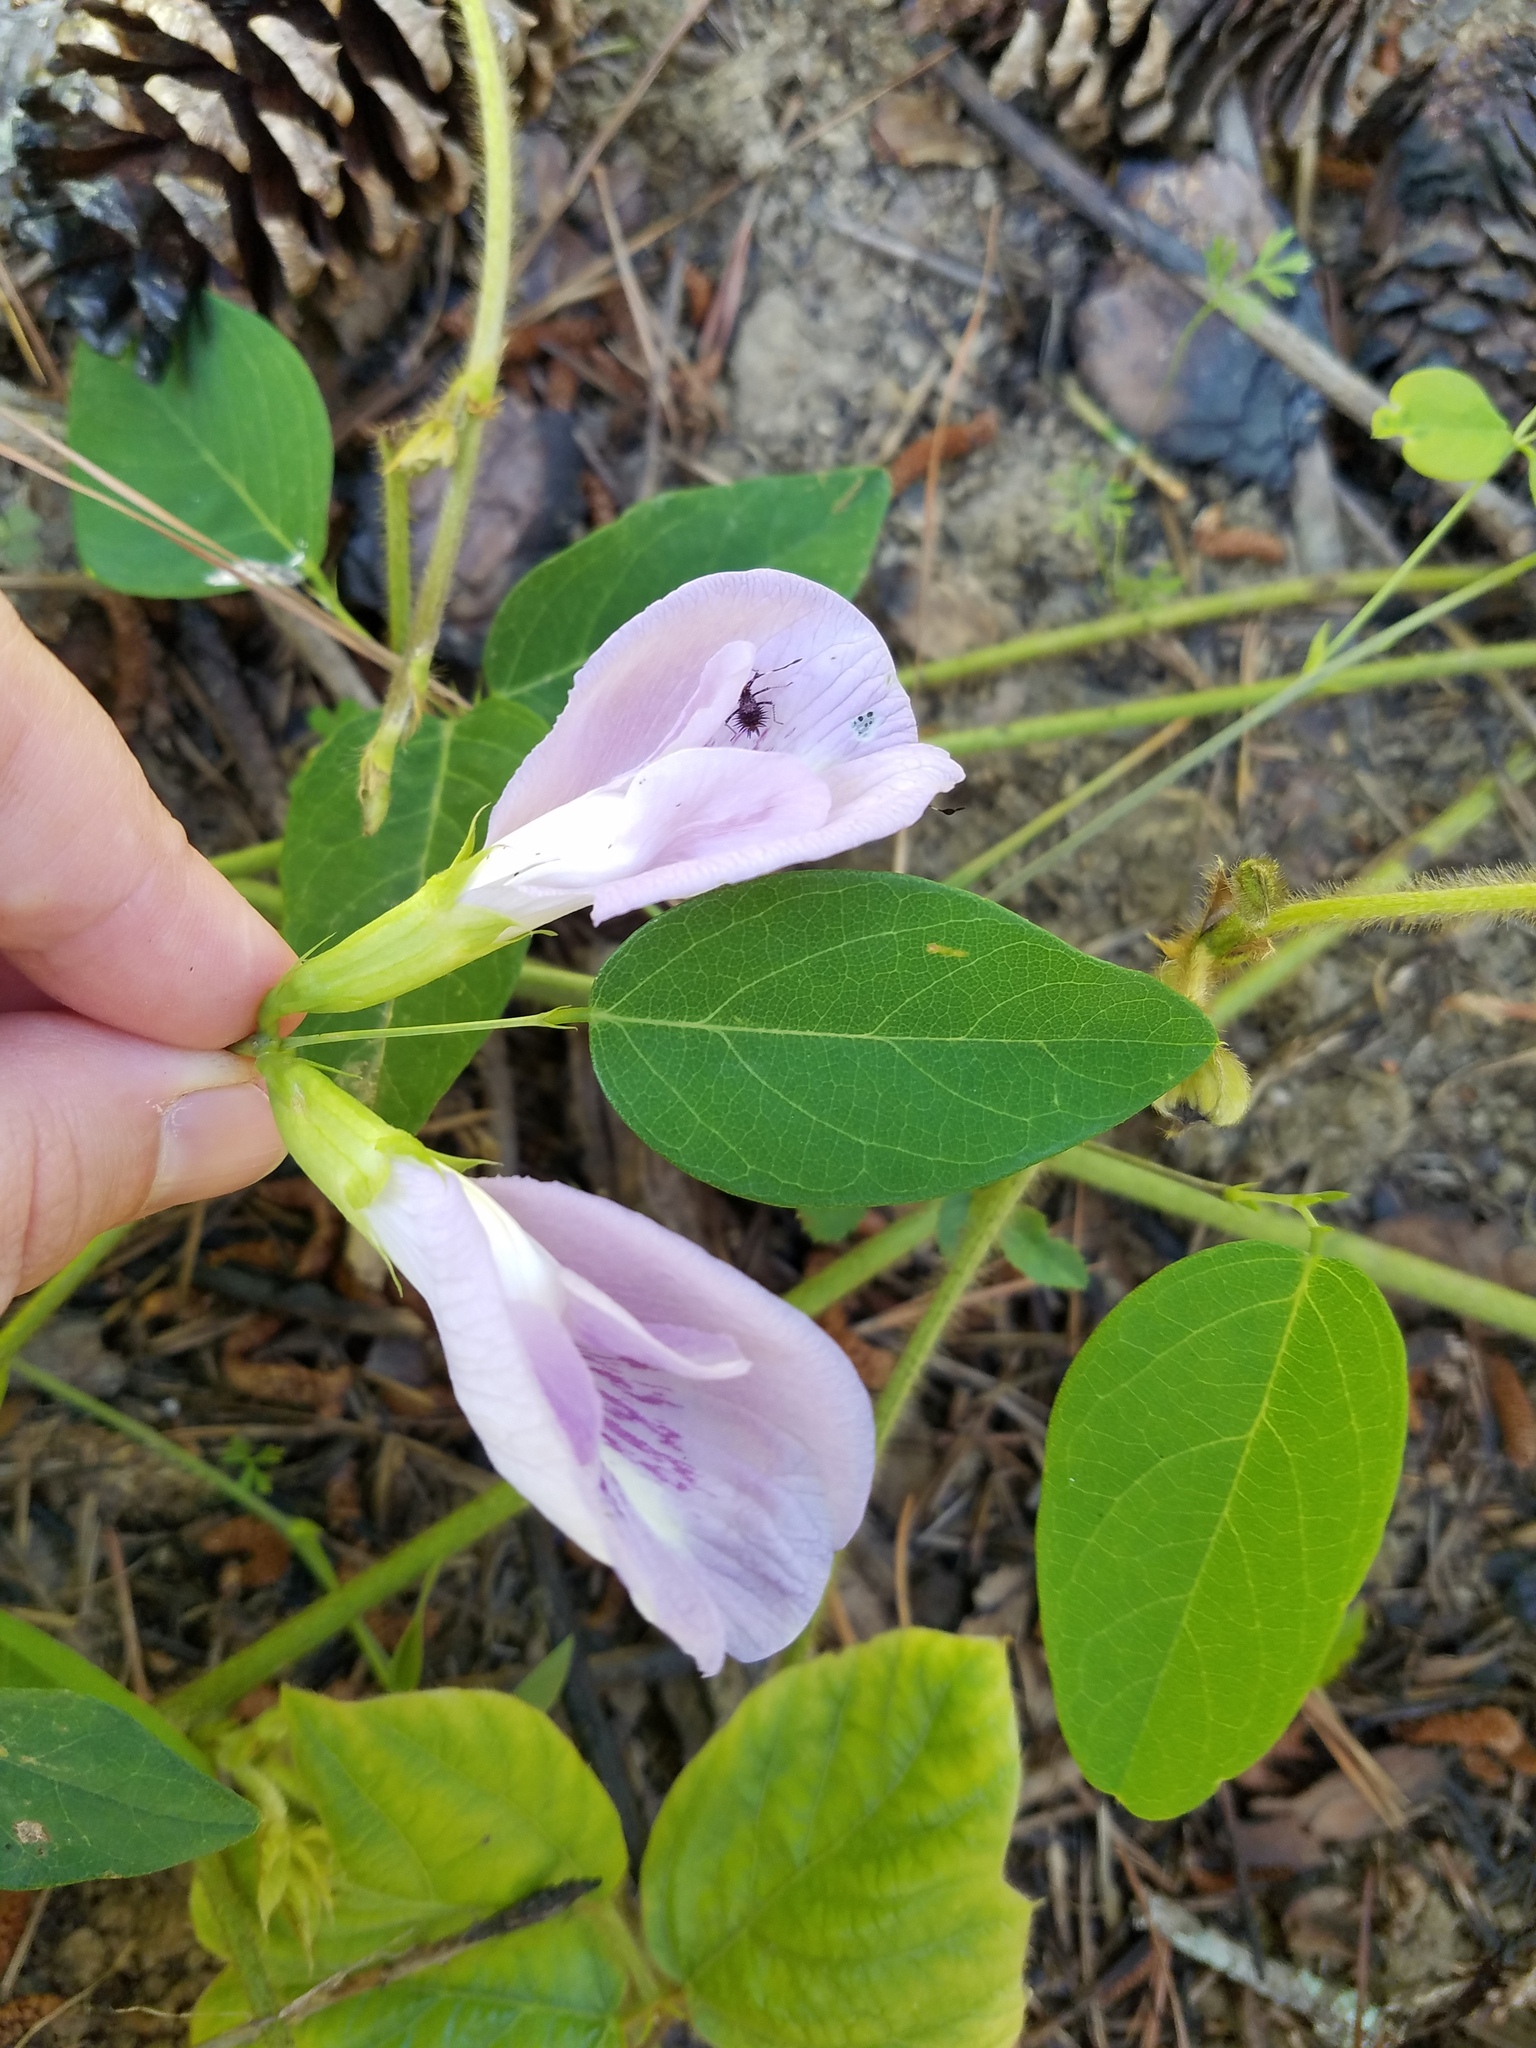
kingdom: Plantae
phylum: Tracheophyta
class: Magnoliopsida
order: Fabales
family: Fabaceae
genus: Clitoria
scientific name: Clitoria mariana
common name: Butterfly-pea
